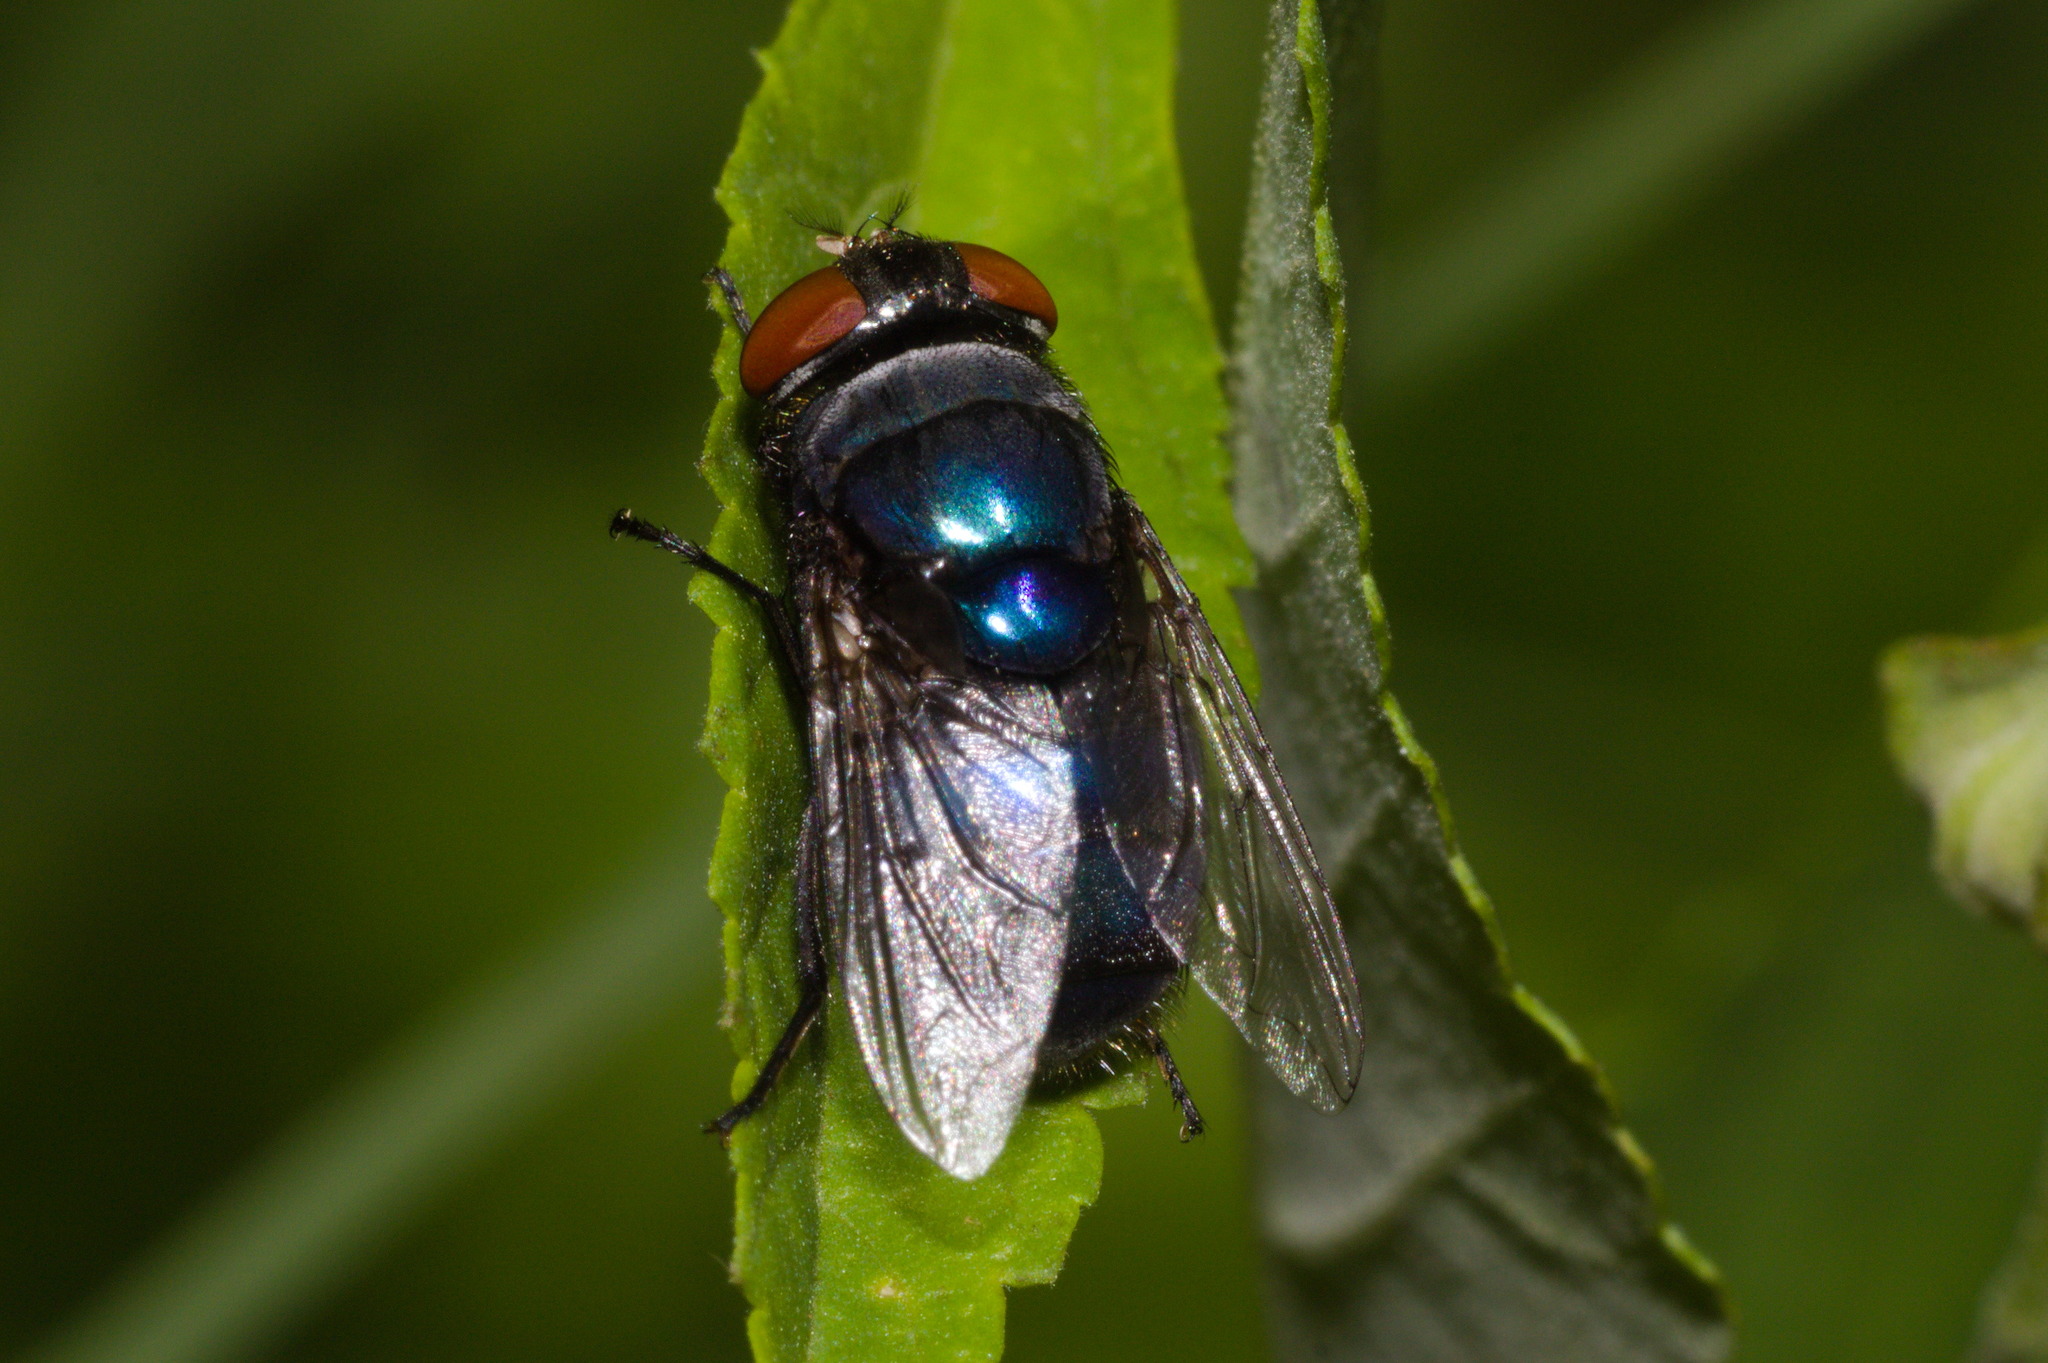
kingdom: Animalia
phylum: Arthropoda
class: Insecta
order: Diptera
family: Calliphoridae
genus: Chrysomya
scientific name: Chrysomya megacephala
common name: Blow fly
